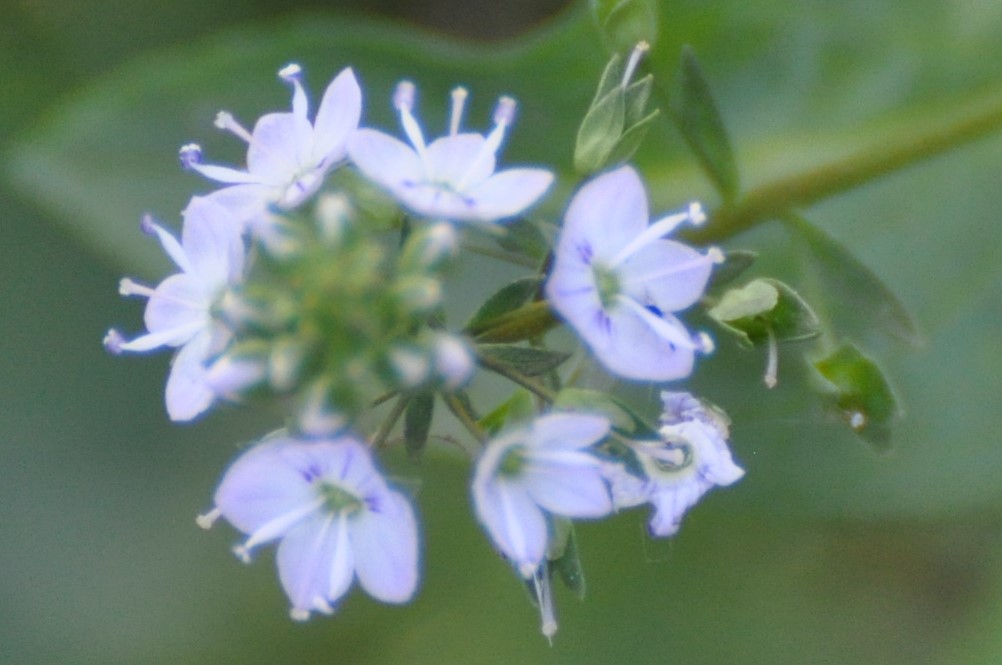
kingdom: Plantae
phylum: Tracheophyta
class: Magnoliopsida
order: Lamiales
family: Plantaginaceae
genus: Veronica
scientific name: Veronica anagallis-aquatica
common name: Water speedwell
